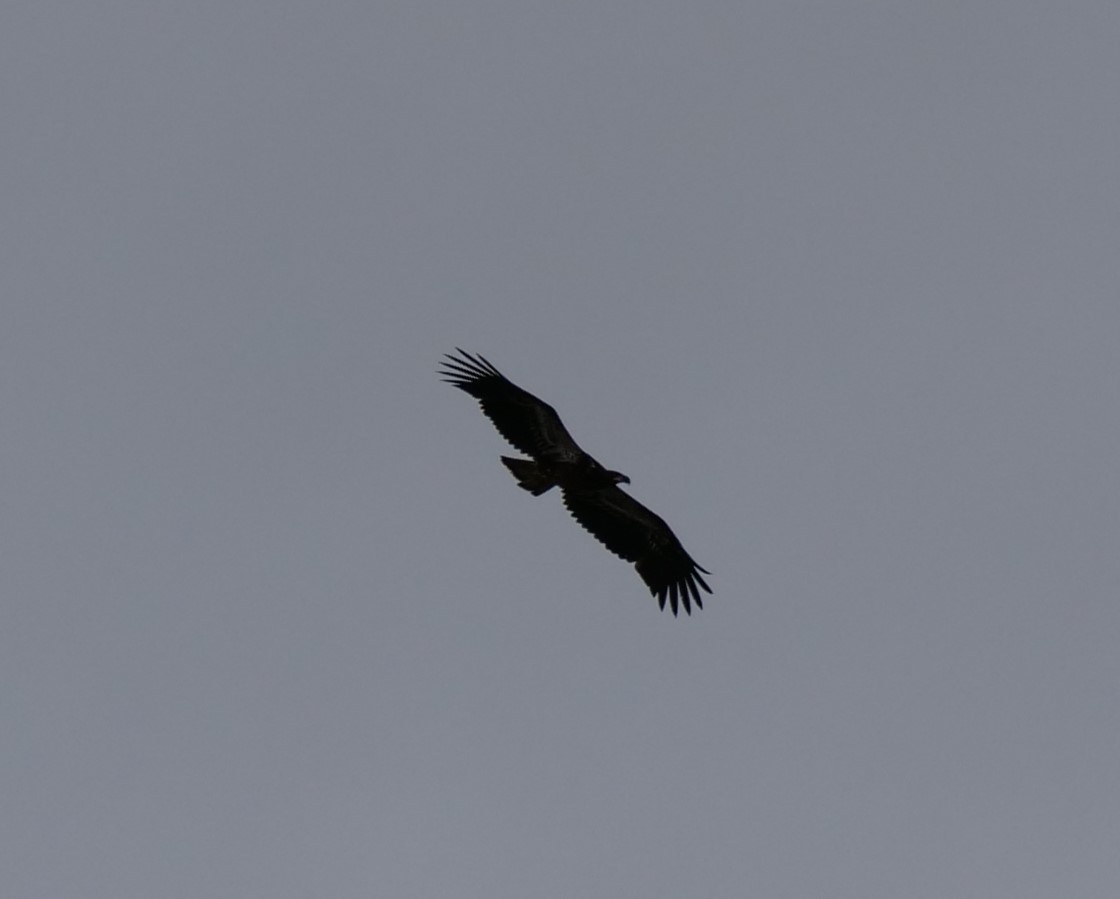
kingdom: Animalia
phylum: Chordata
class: Aves
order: Accipitriformes
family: Accipitridae
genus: Haliaeetus
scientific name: Haliaeetus leucocephalus
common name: Bald eagle
